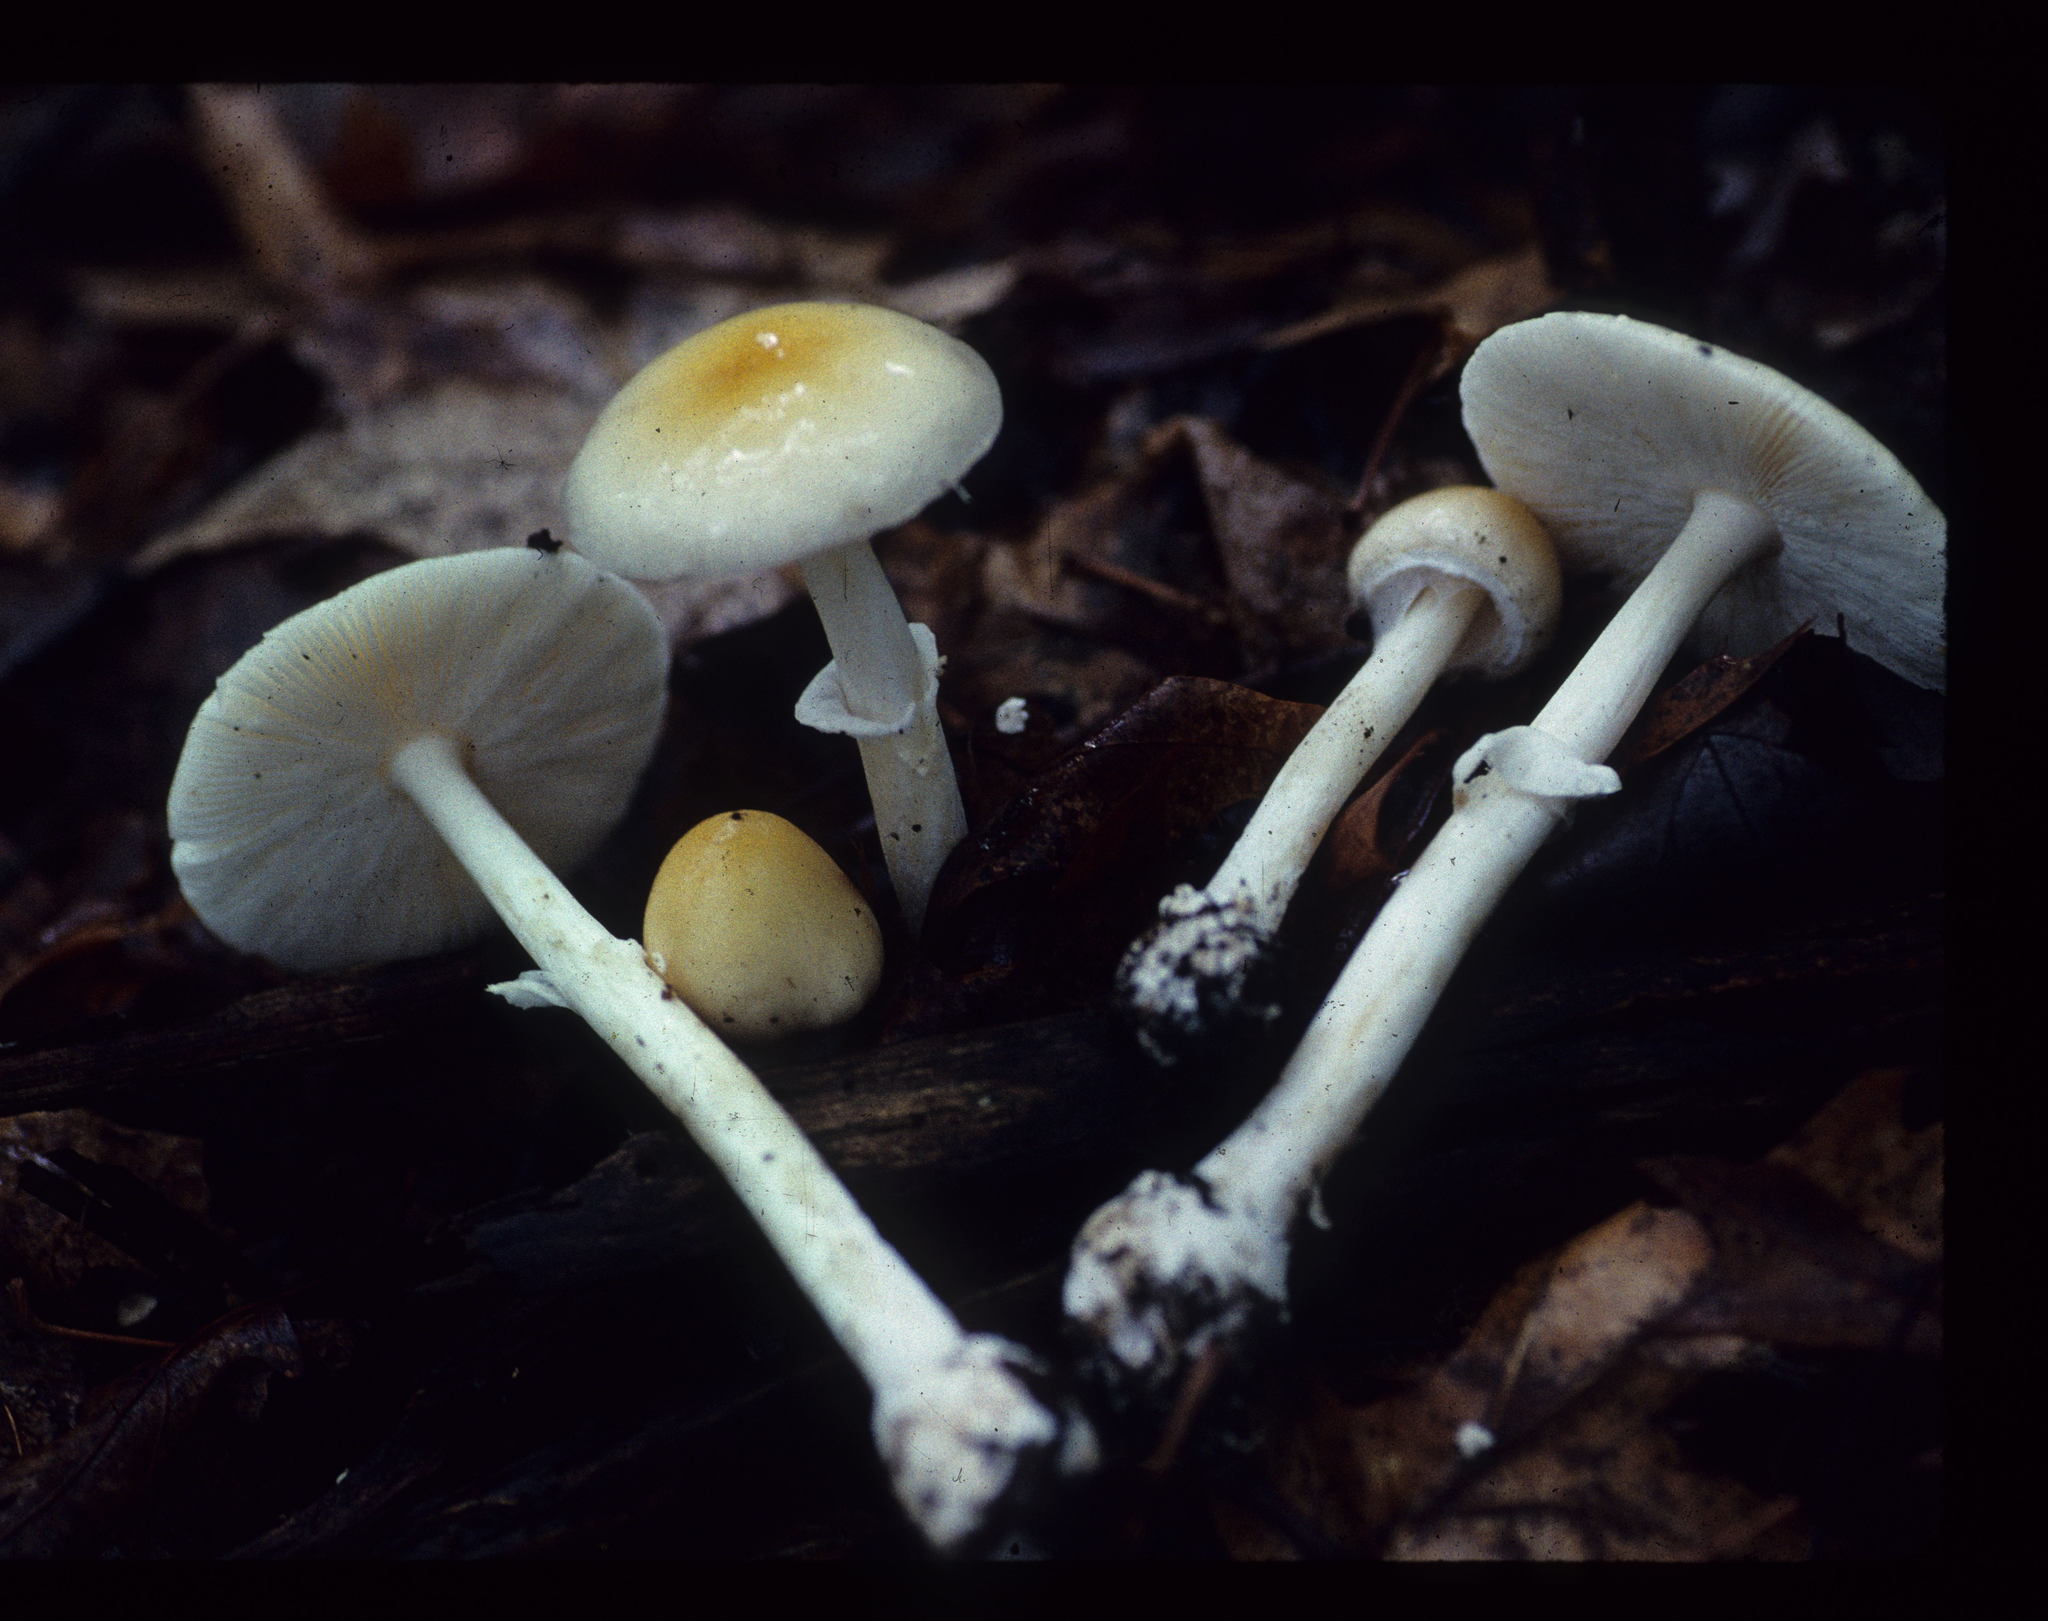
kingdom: Fungi
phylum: Basidiomycota
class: Agaricomycetes
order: Agaricales
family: Amanitaceae
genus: Amanita
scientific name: Amanita multisquamosa
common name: Small funnel-veil amanita
